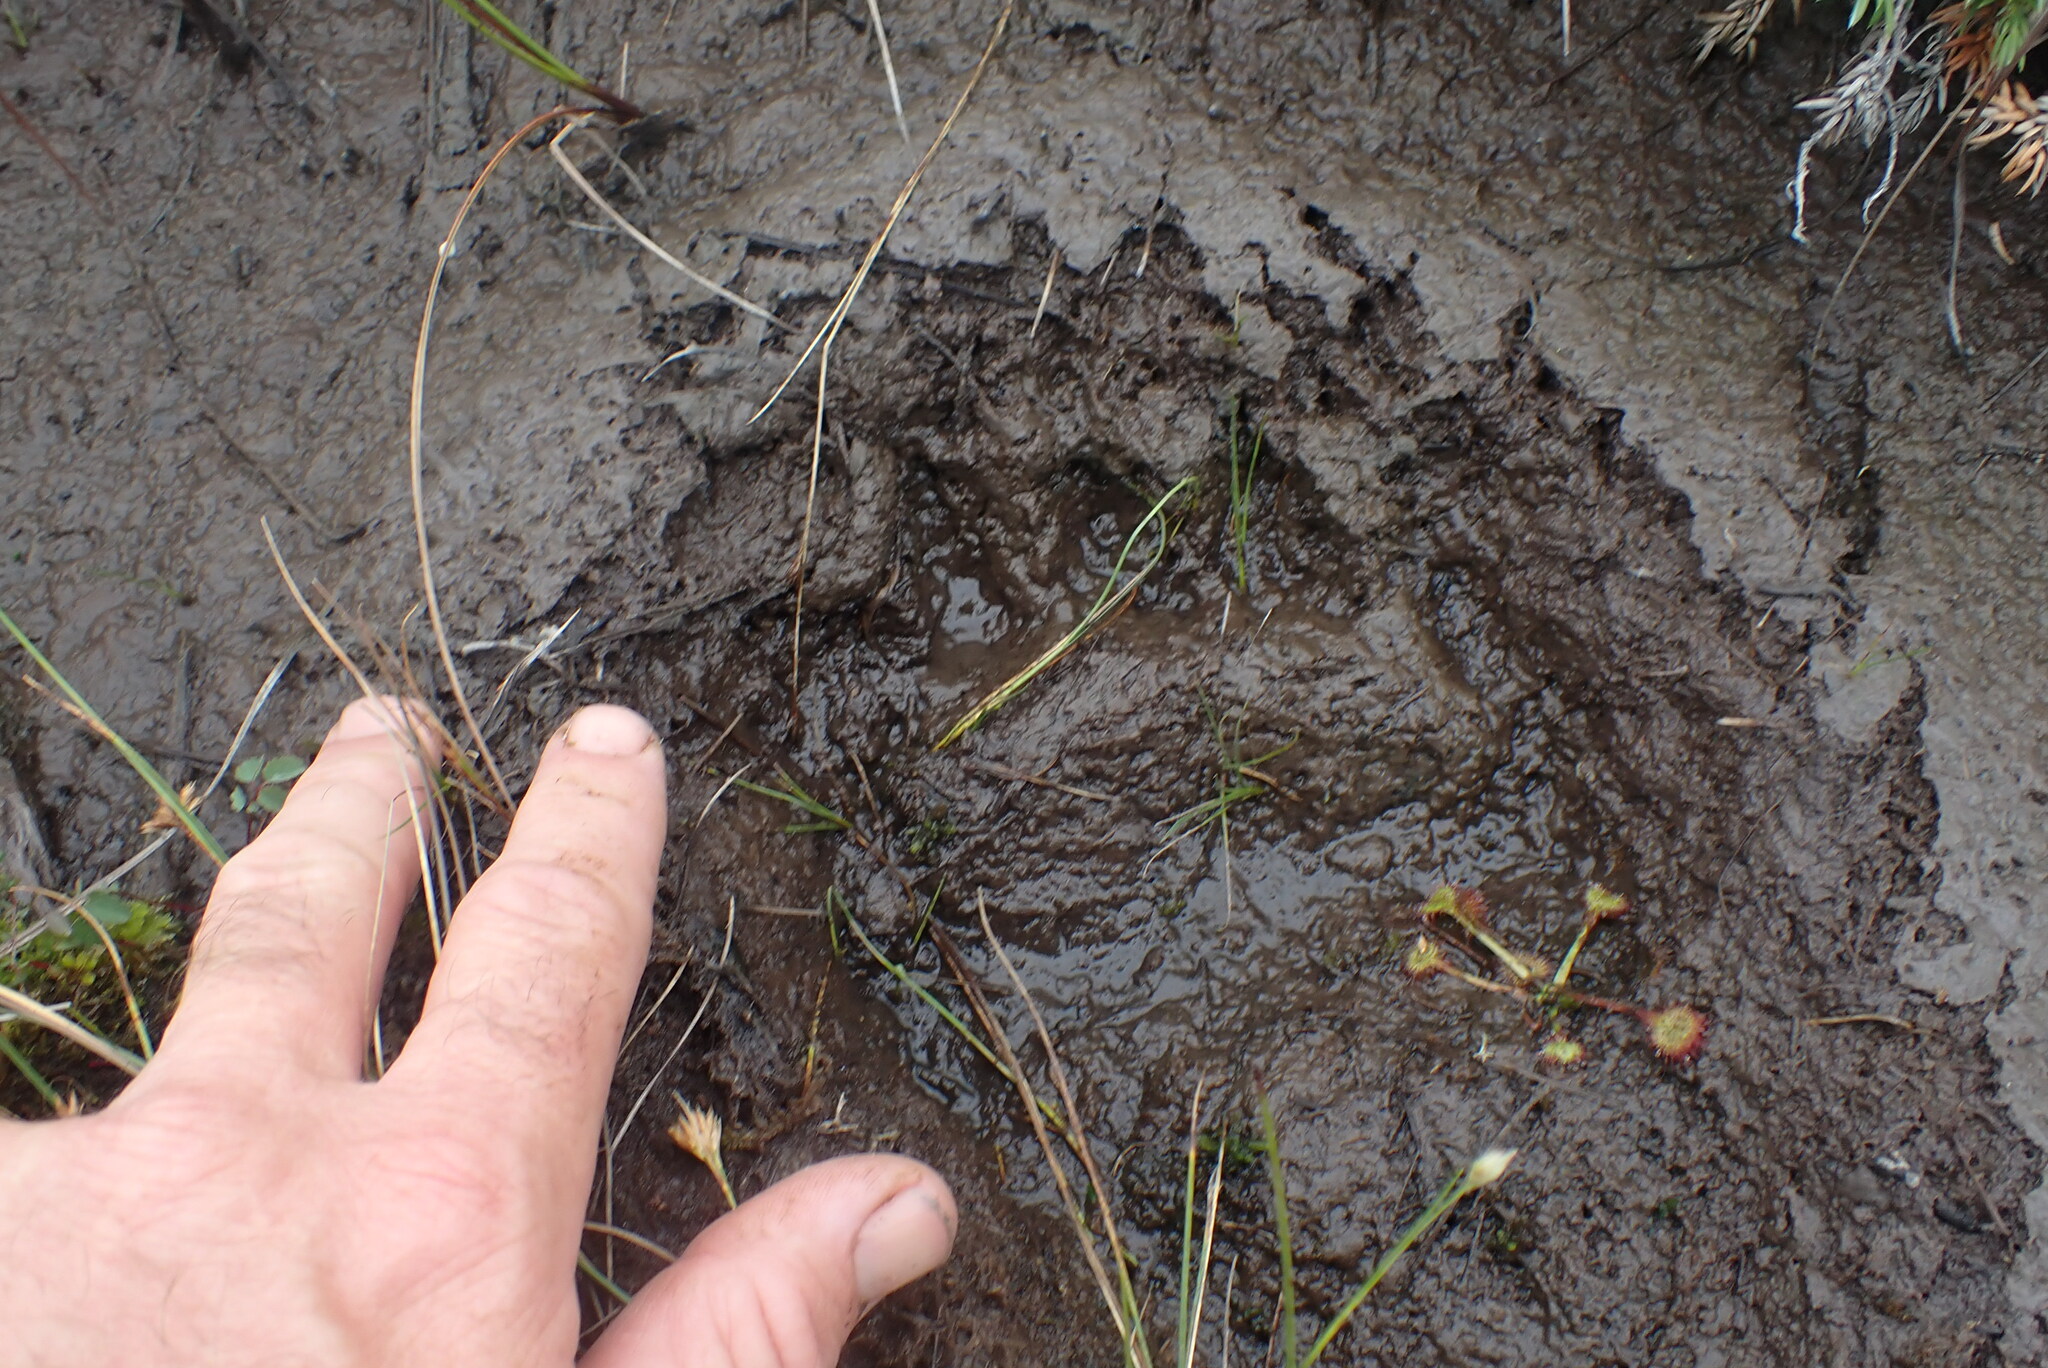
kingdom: Animalia
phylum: Chordata
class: Mammalia
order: Carnivora
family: Ursidae
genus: Ursus
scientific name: Ursus americanus
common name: American black bear
